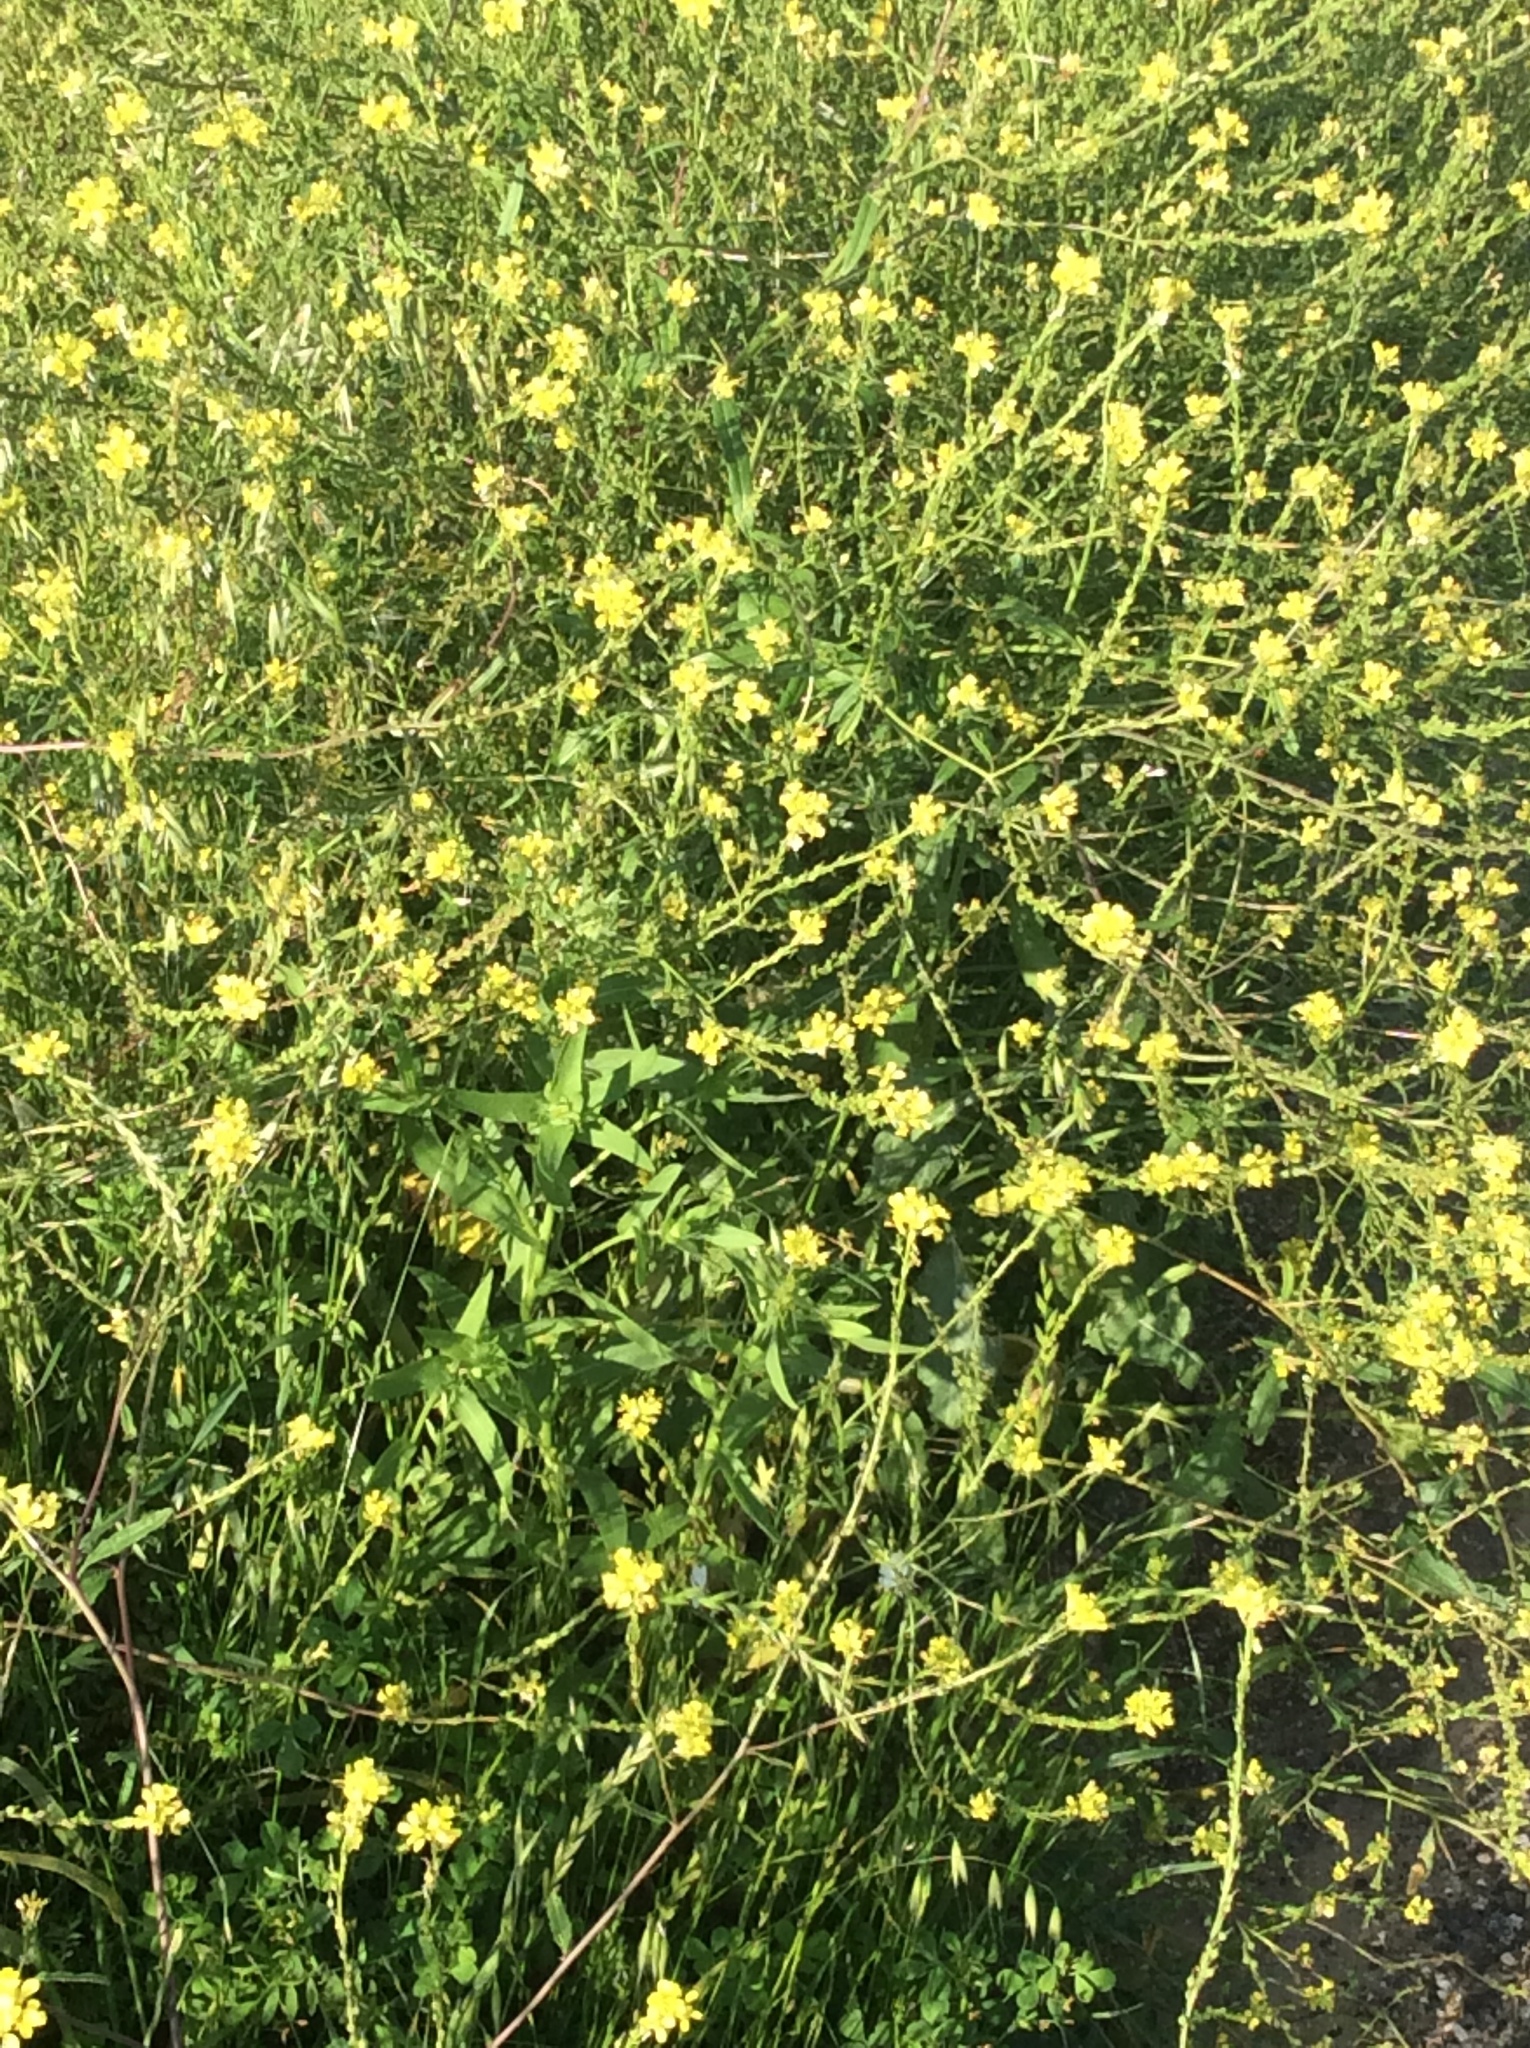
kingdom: Plantae
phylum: Tracheophyta
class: Magnoliopsida
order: Brassicales
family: Brassicaceae
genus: Rapistrum
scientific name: Rapistrum rugosum
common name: Annual bastardcabbage
